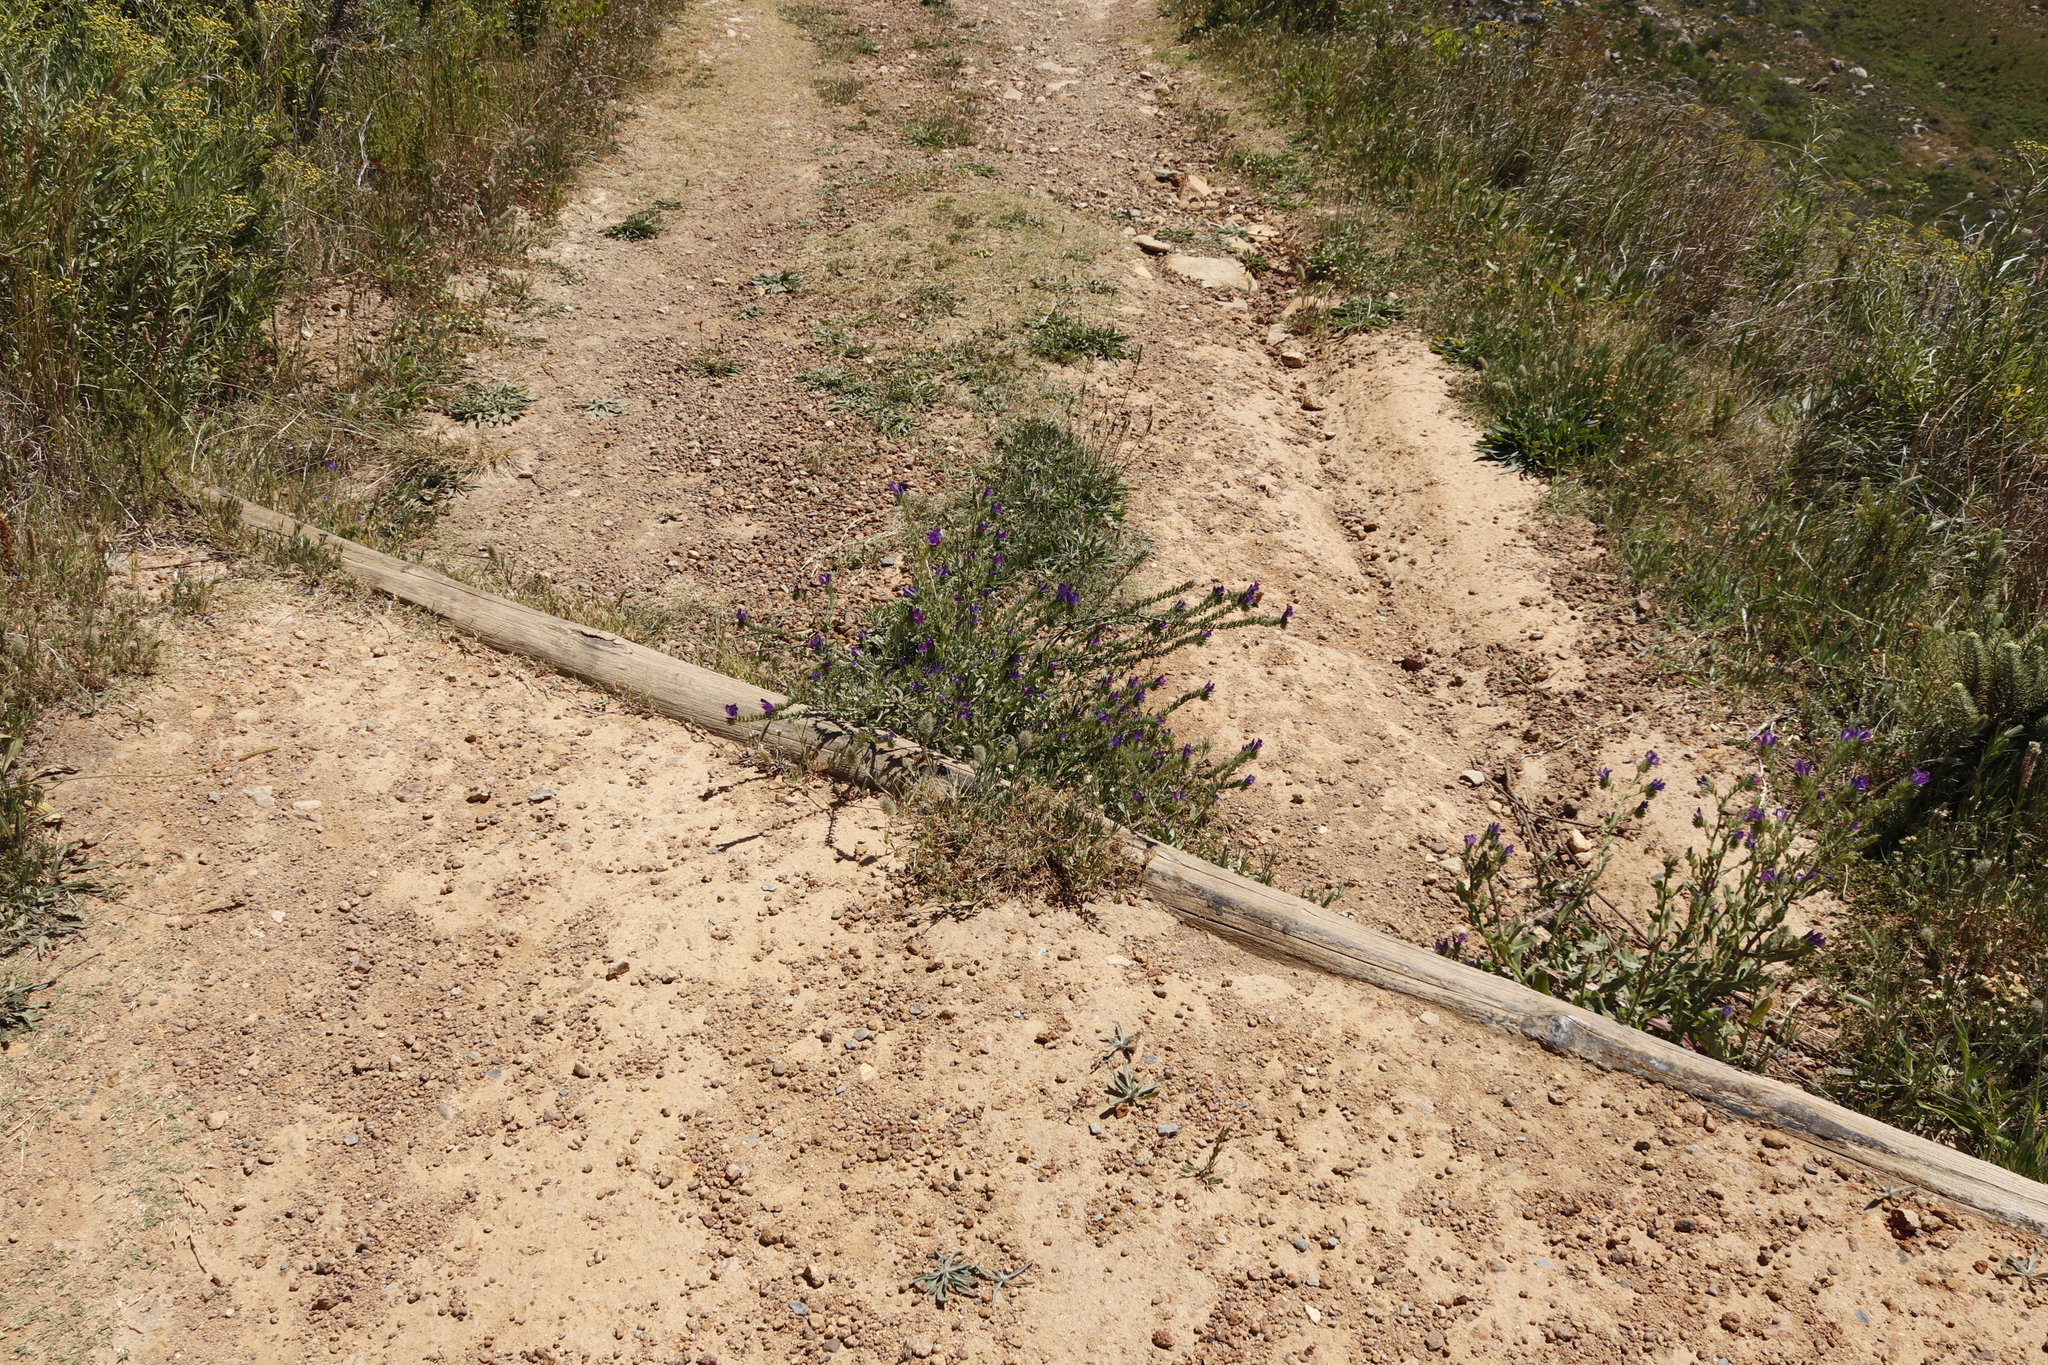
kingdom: Plantae
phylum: Tracheophyta
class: Magnoliopsida
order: Boraginales
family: Boraginaceae
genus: Echium
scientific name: Echium plantagineum
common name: Purple viper's-bugloss
